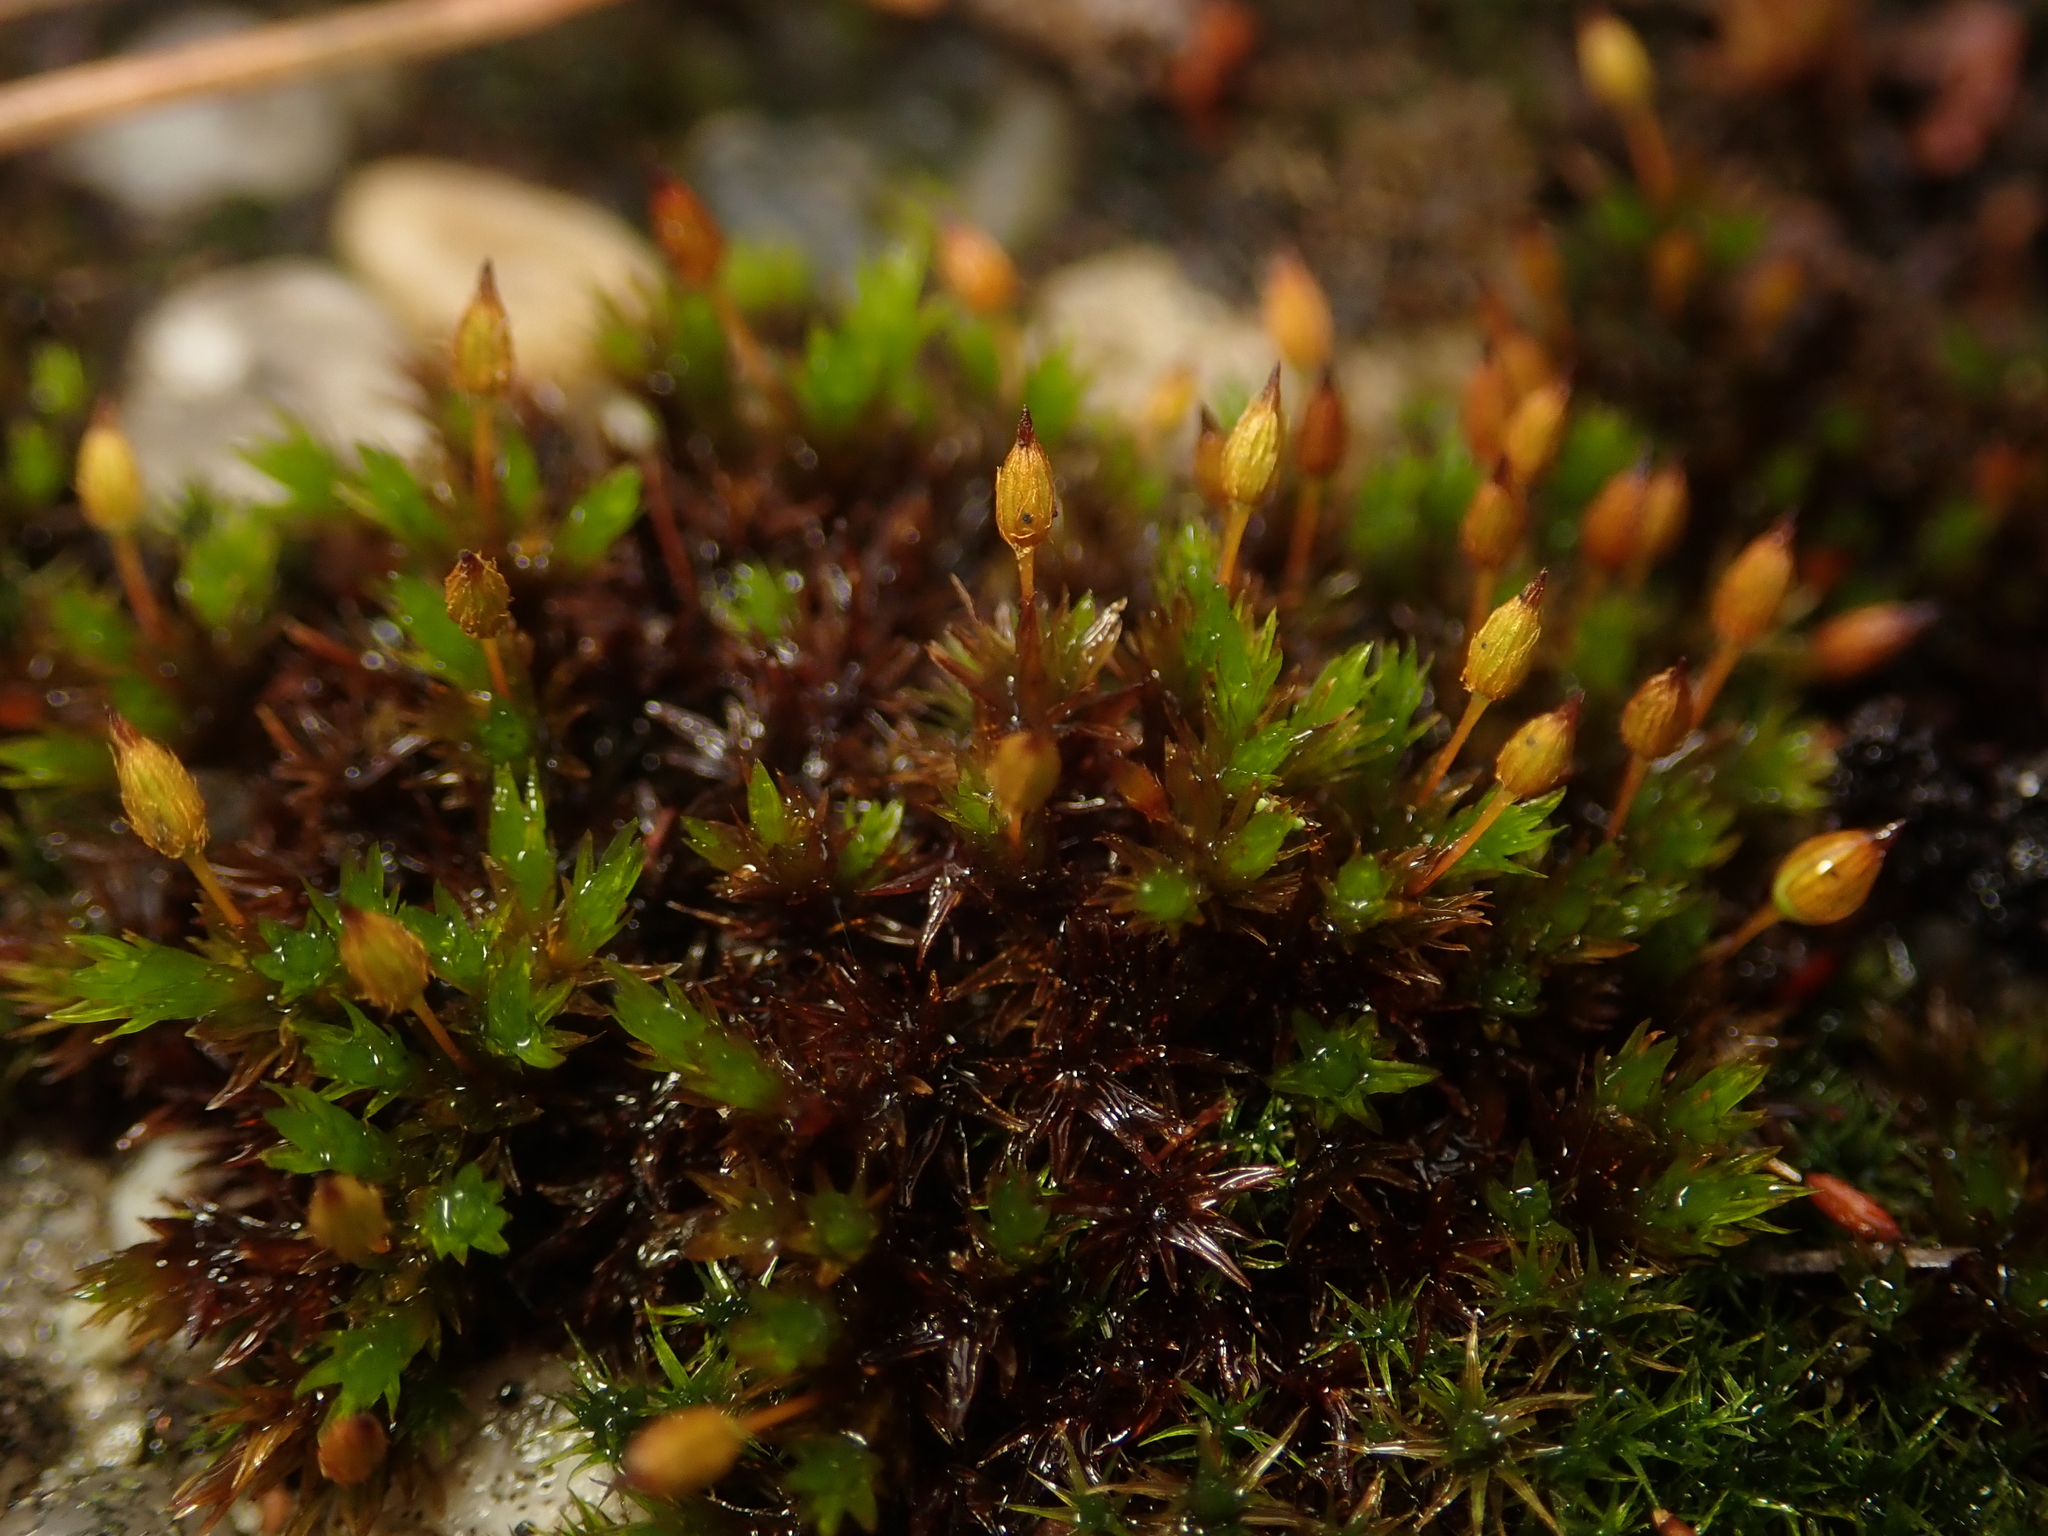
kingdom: Plantae
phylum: Bryophyta
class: Bryopsida
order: Orthotrichales
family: Orthotrichaceae
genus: Orthotrichum
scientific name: Orthotrichum anomalum
